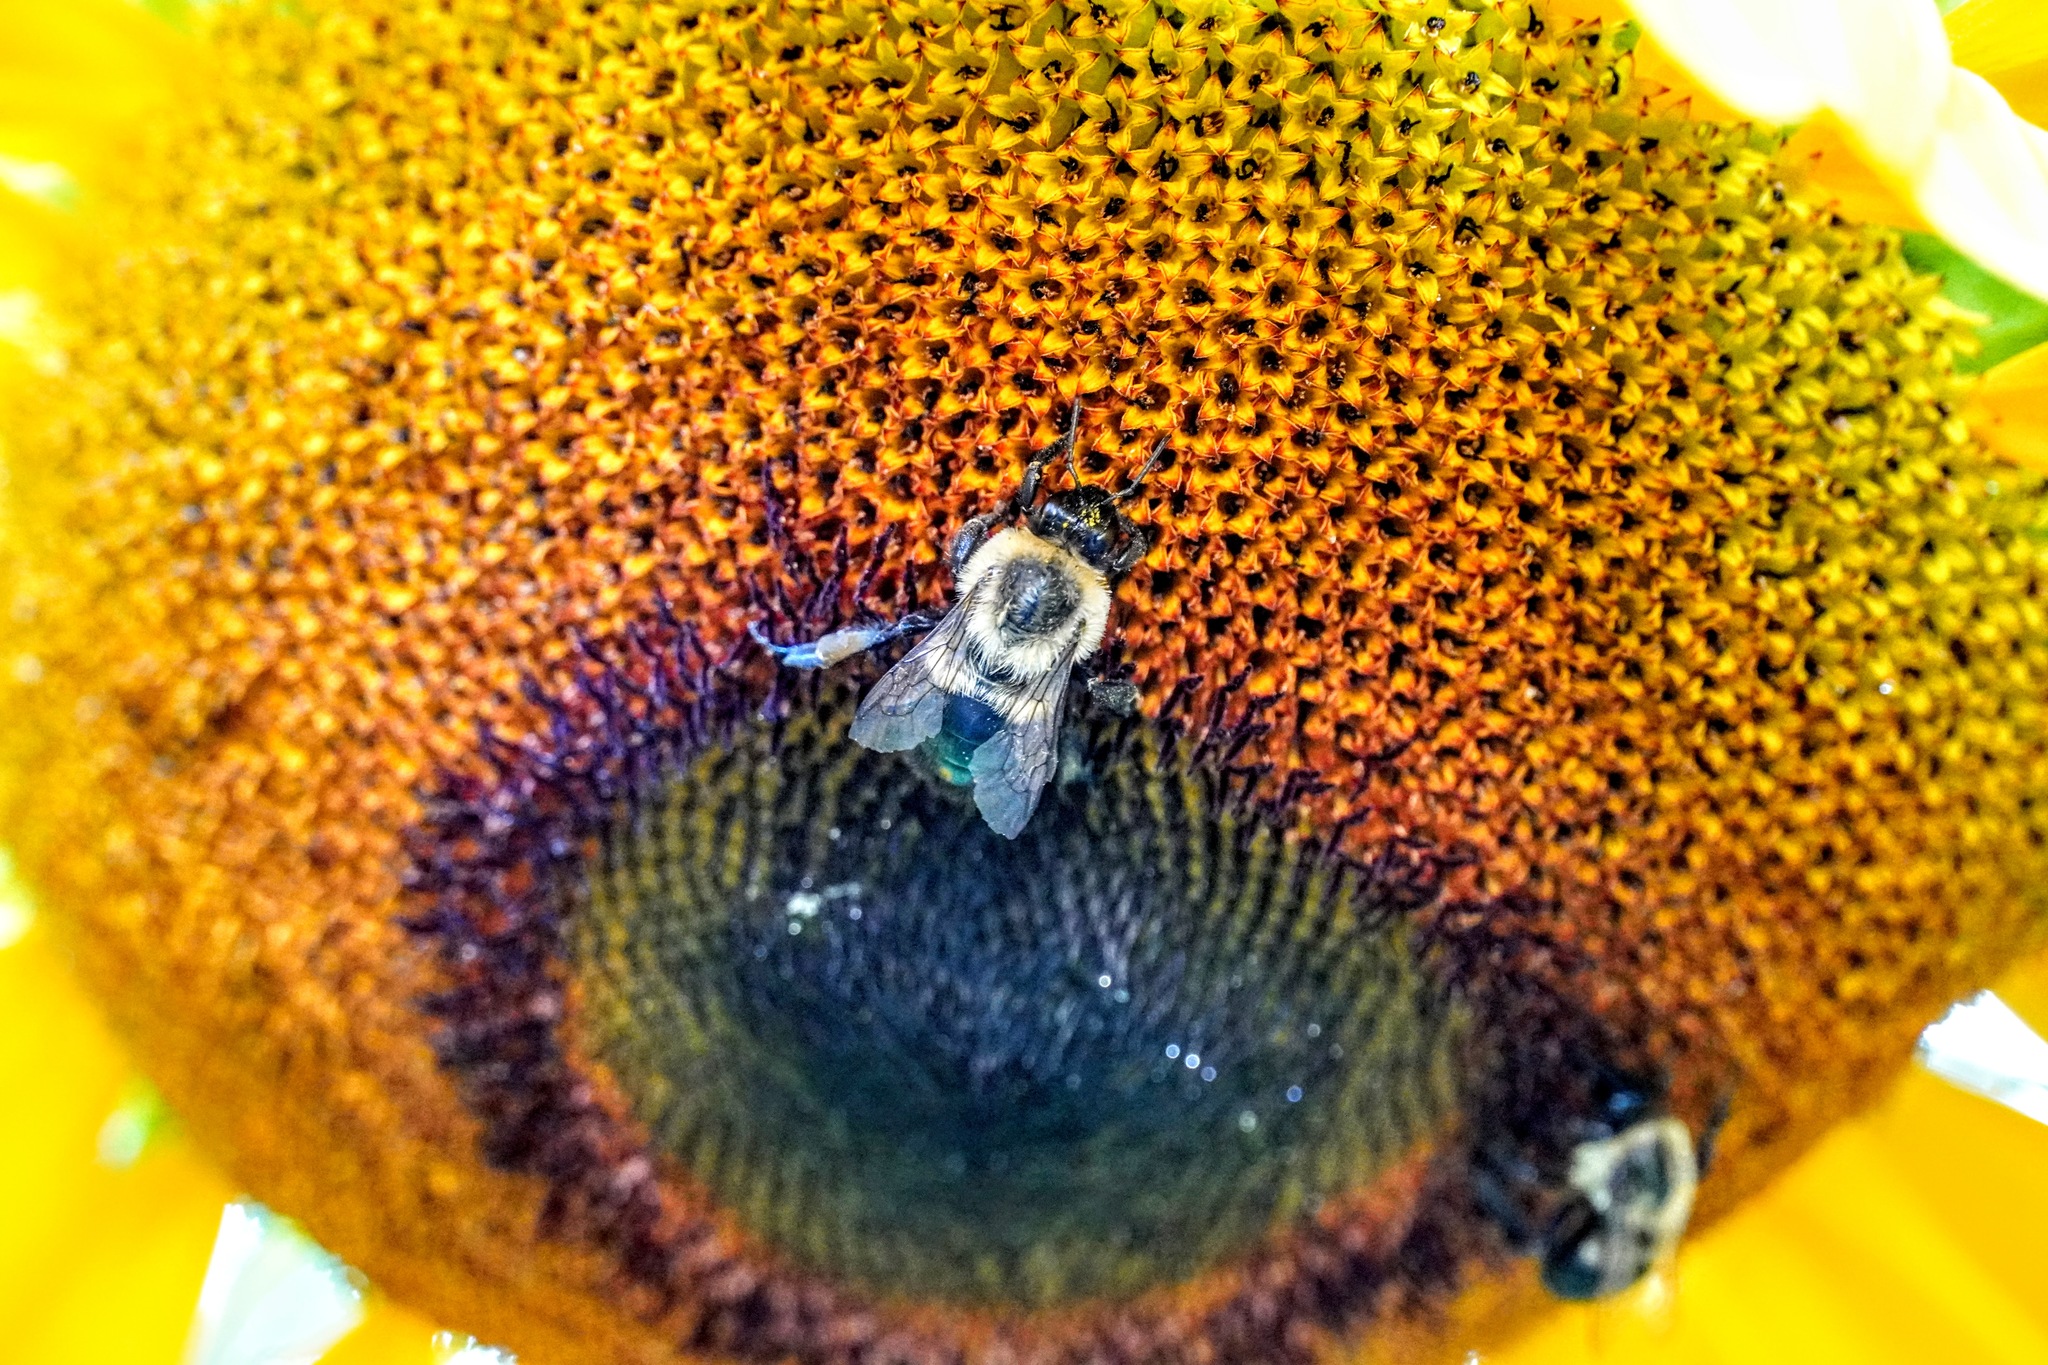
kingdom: Animalia
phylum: Arthropoda
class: Insecta
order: Hymenoptera
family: Apidae
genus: Bombus
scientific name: Bombus impatiens
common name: Common eastern bumble bee
